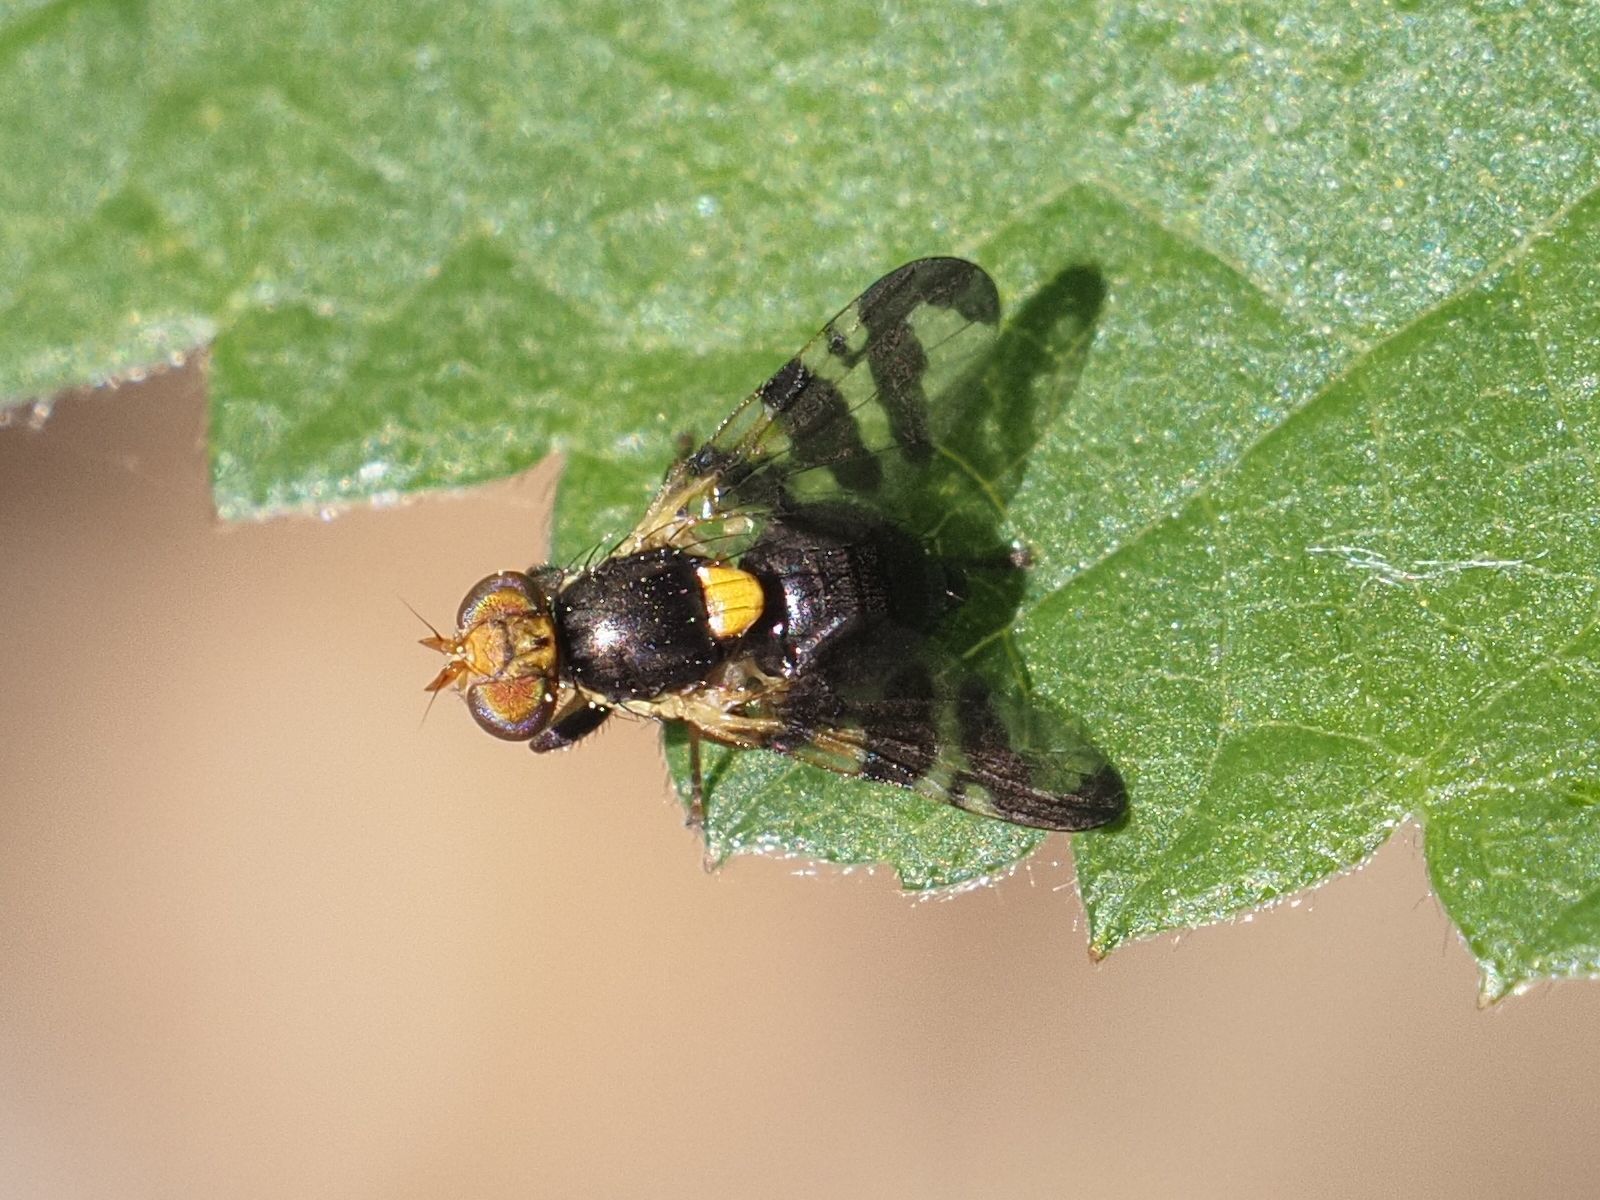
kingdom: Animalia
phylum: Arthropoda
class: Insecta
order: Diptera
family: Tephritidae
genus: Rhagoletis
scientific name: Rhagoletis cerasi
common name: European cherry fruit fly
